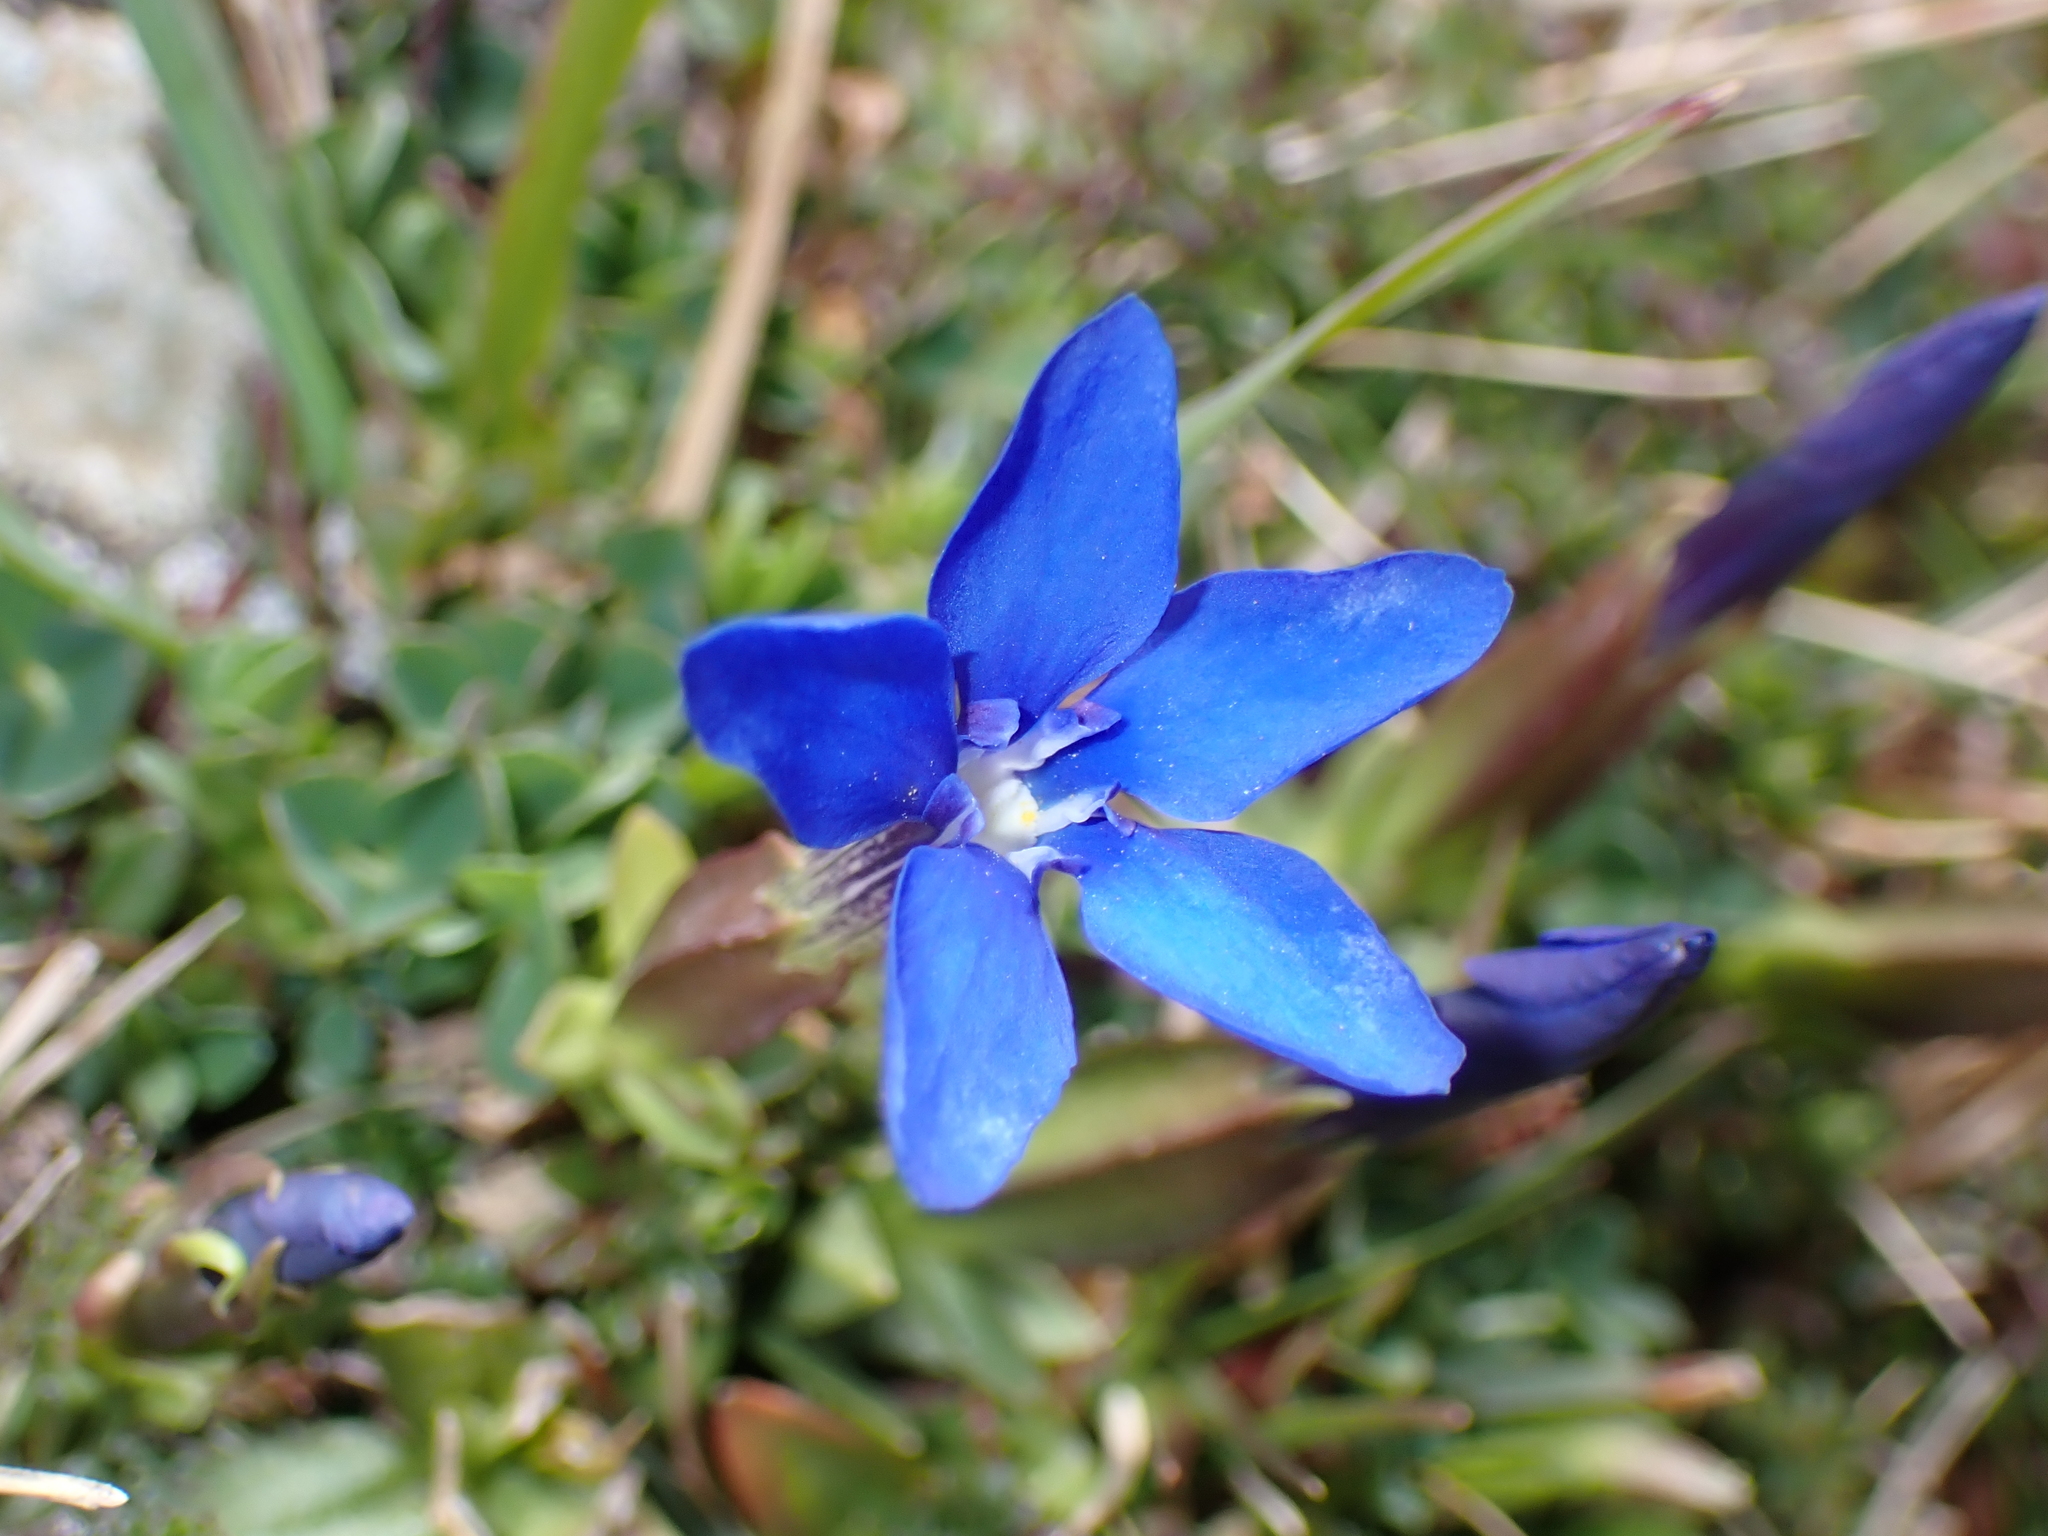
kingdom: Plantae
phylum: Tracheophyta
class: Magnoliopsida
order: Gentianales
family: Gentianaceae
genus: Gentiana
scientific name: Gentiana verna
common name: Spring gentian
